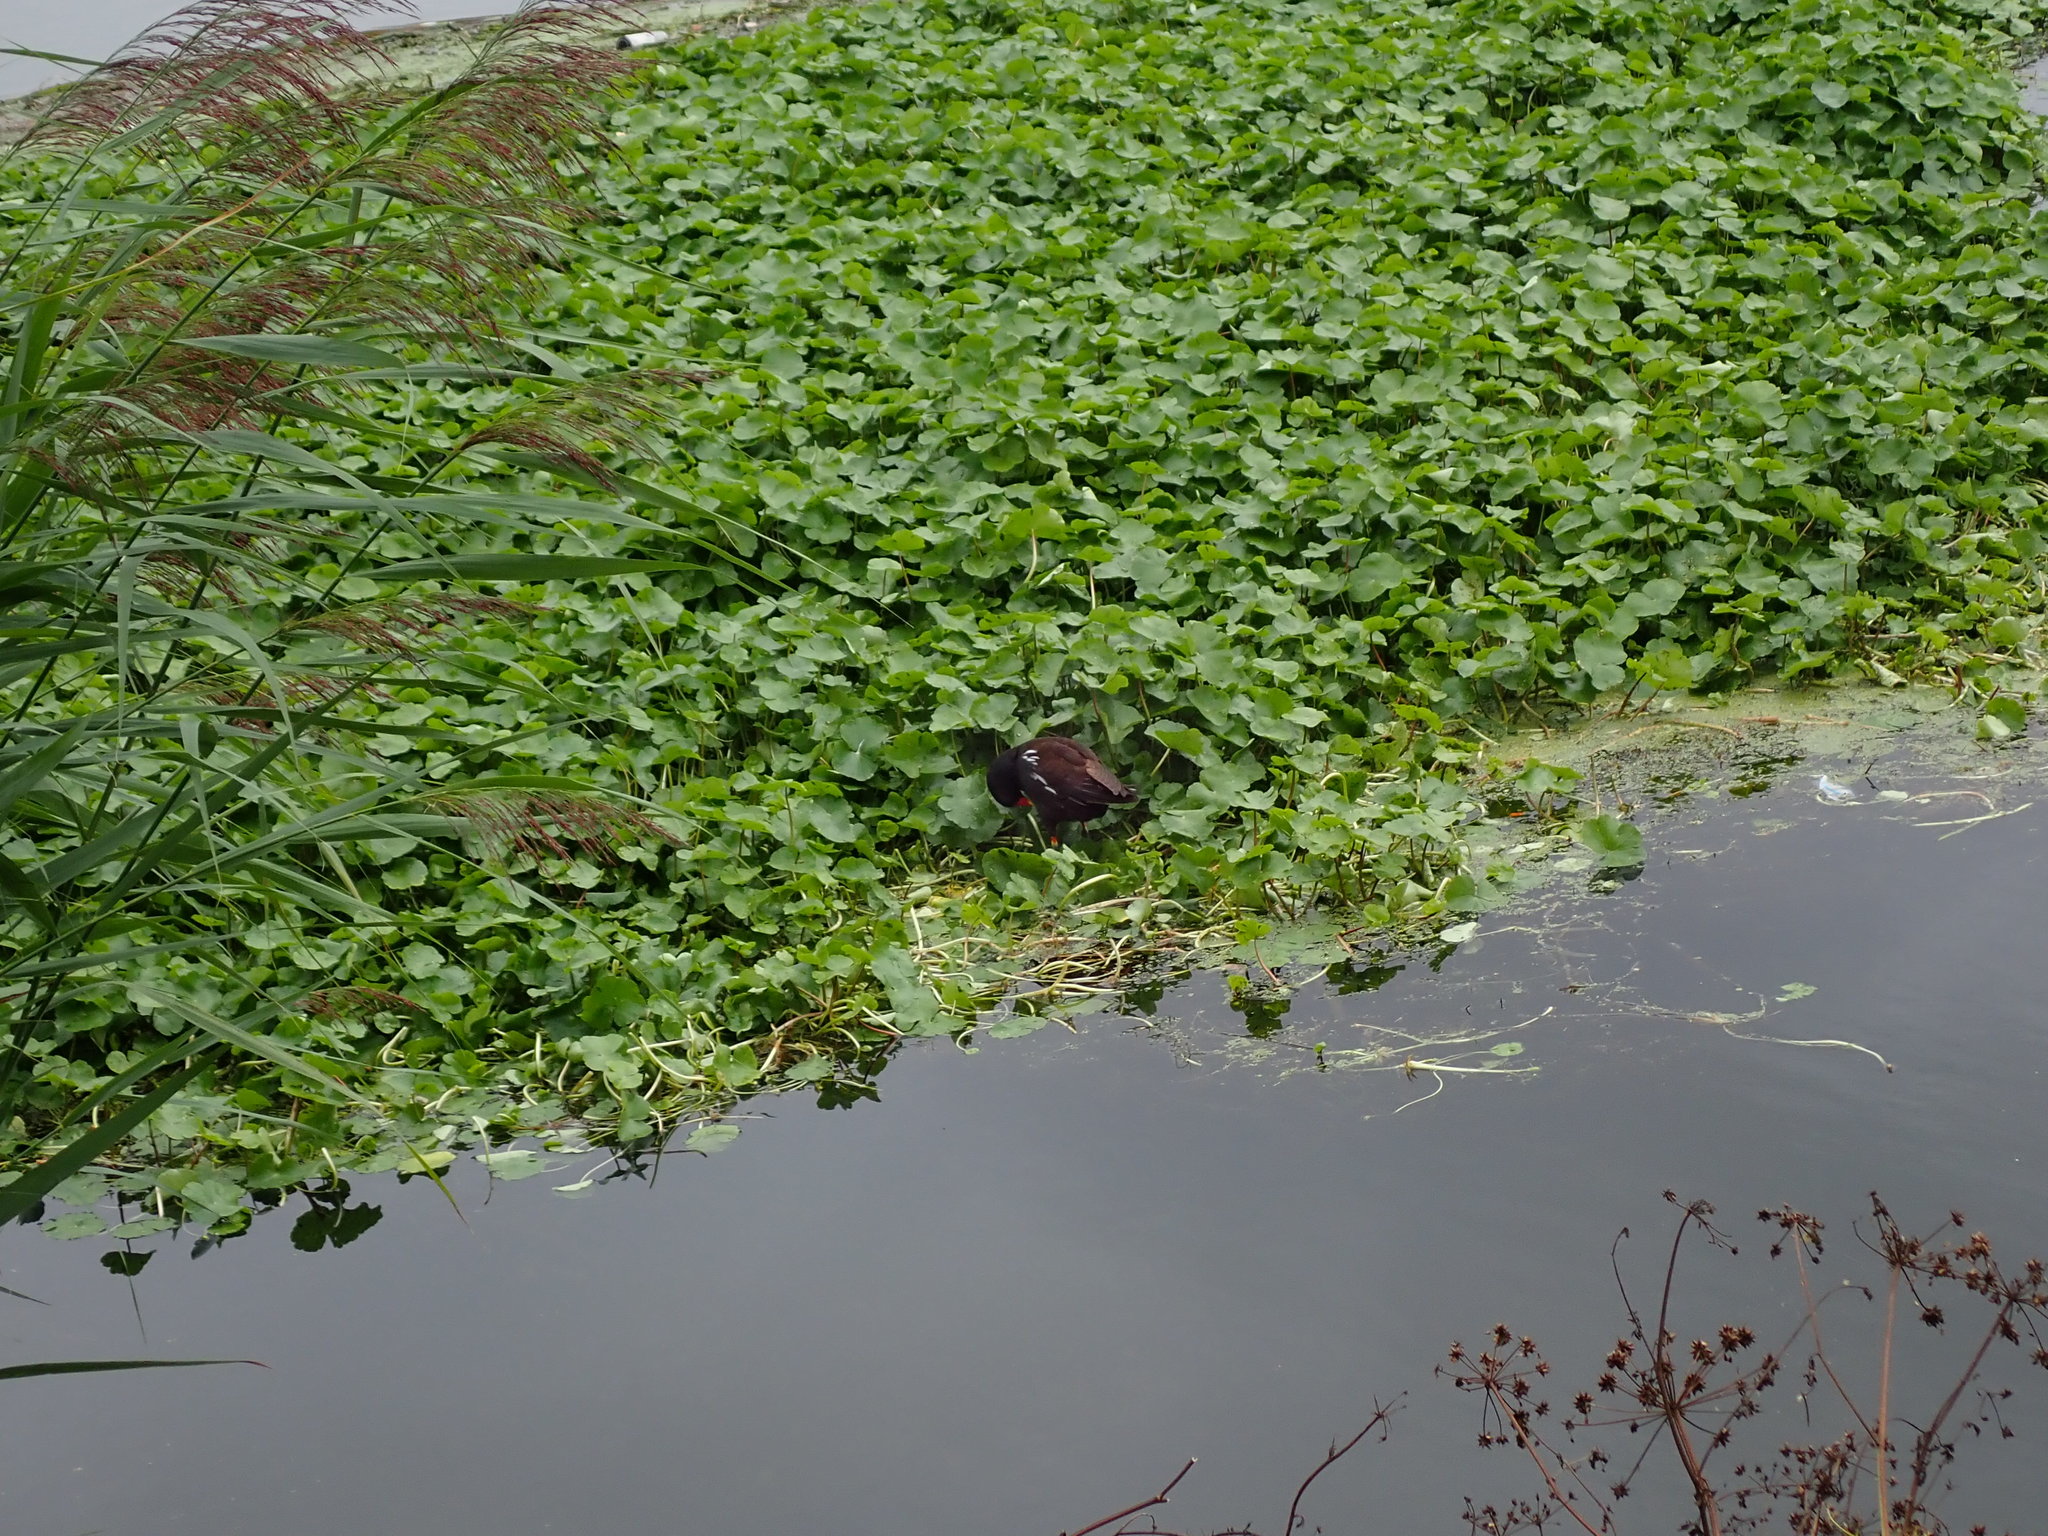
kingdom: Animalia
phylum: Chordata
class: Aves
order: Gruiformes
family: Rallidae
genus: Gallinula
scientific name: Gallinula chloropus
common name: Common moorhen
